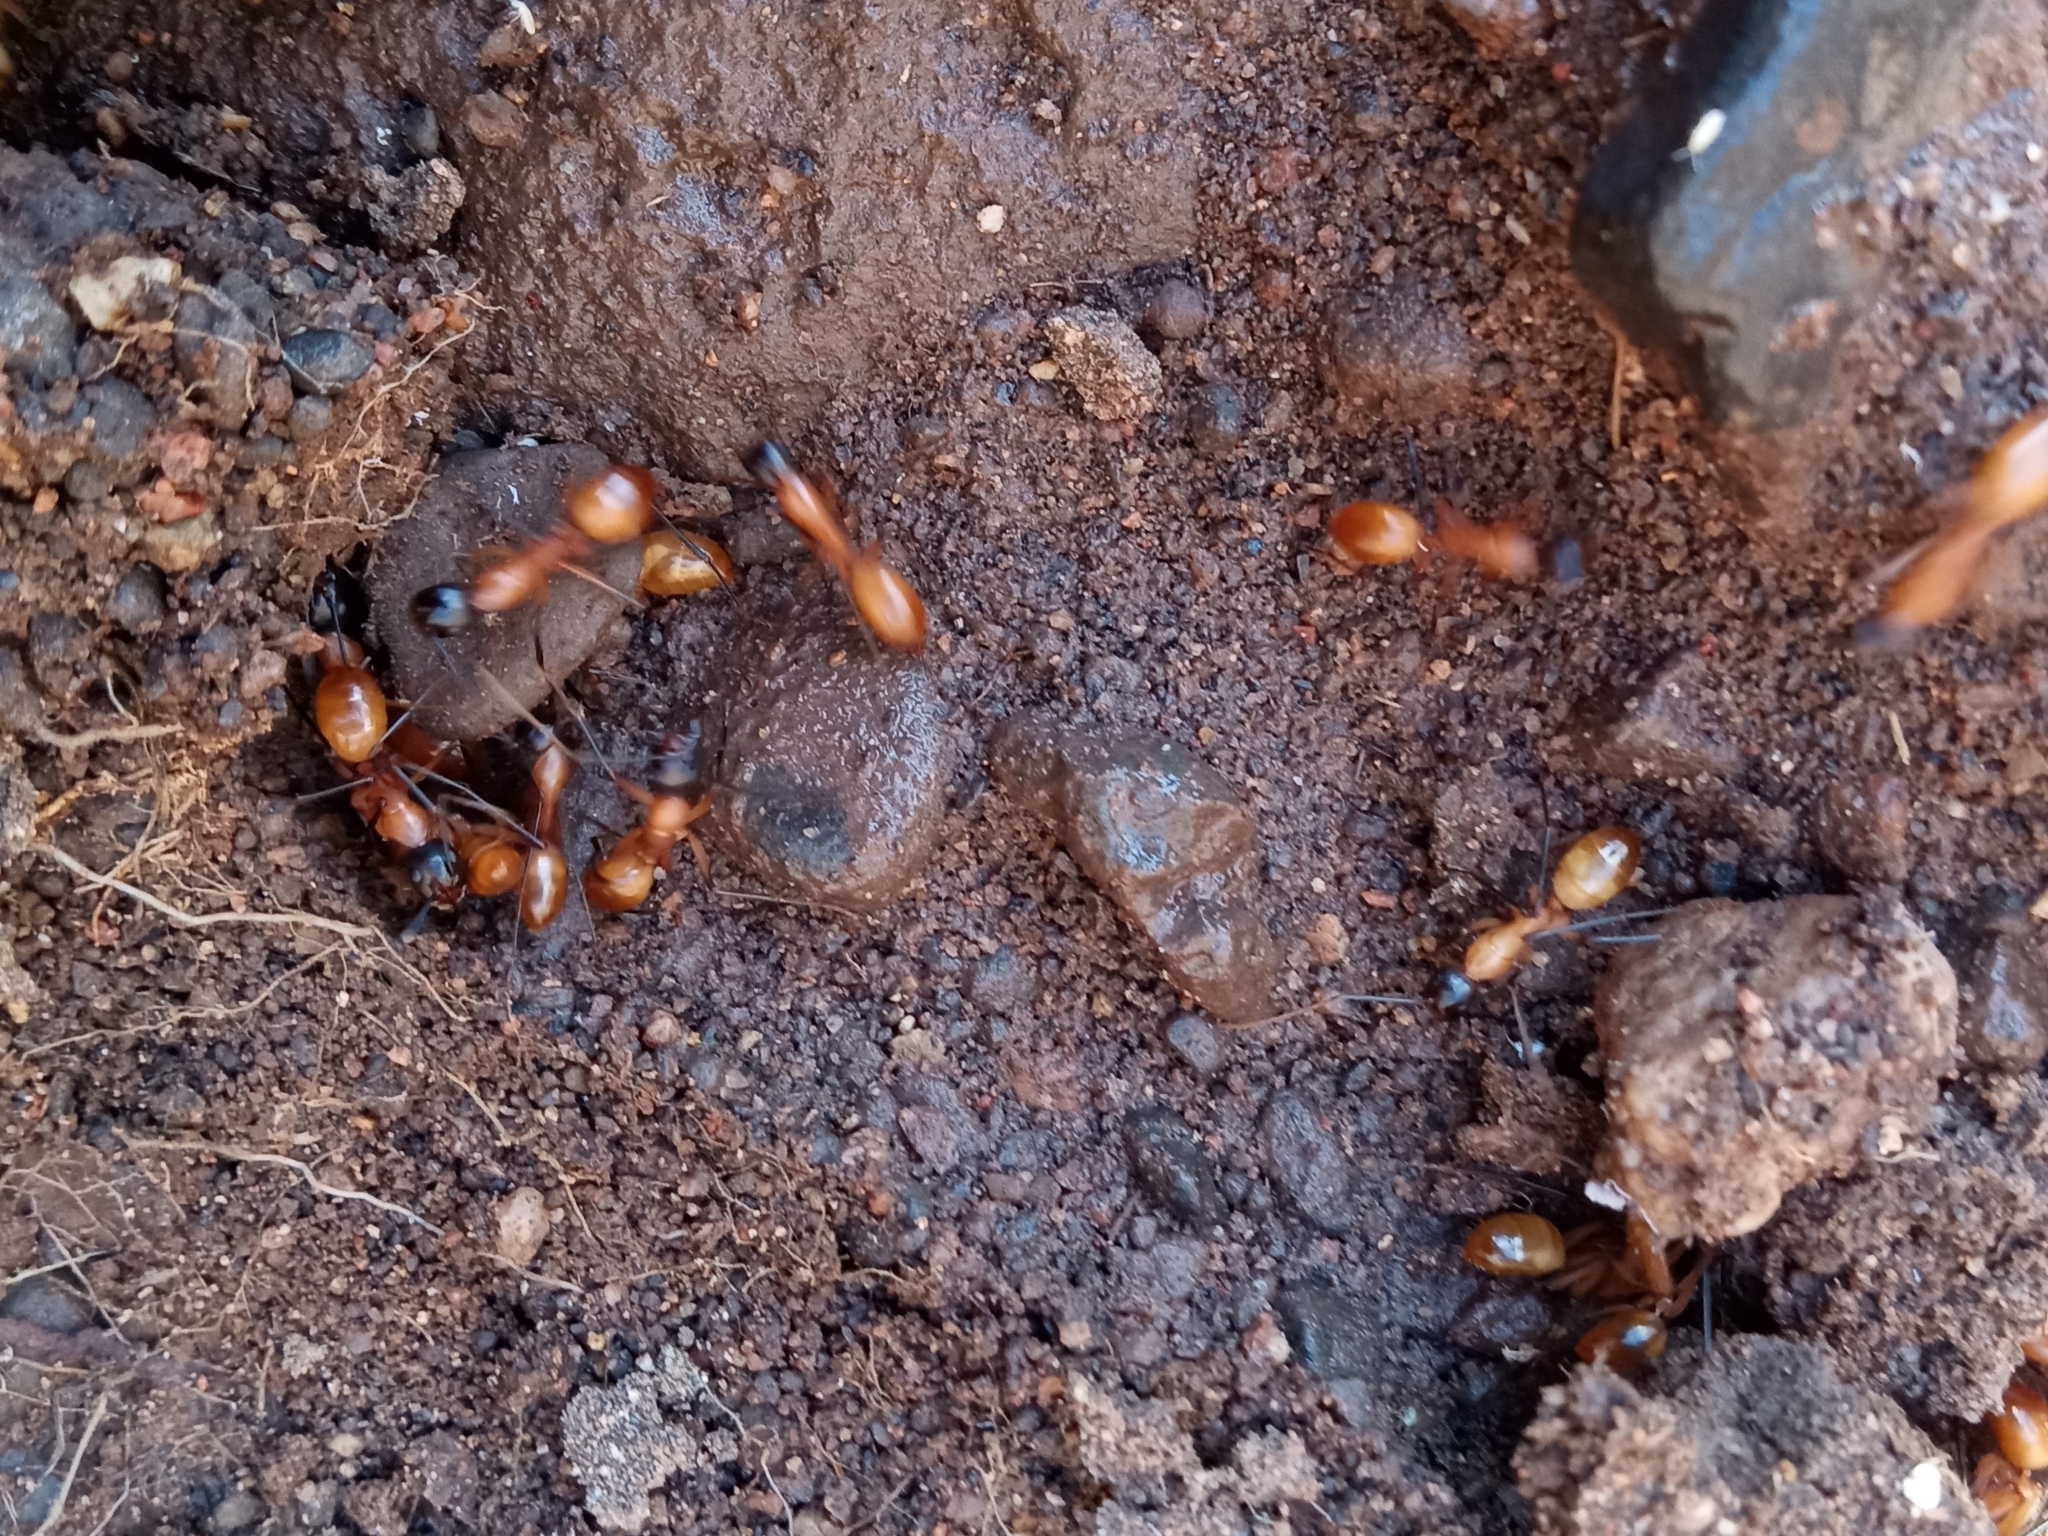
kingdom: Animalia
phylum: Arthropoda
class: Insecta
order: Hymenoptera
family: Formicidae
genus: Camponotus
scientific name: Camponotus ocreatus
